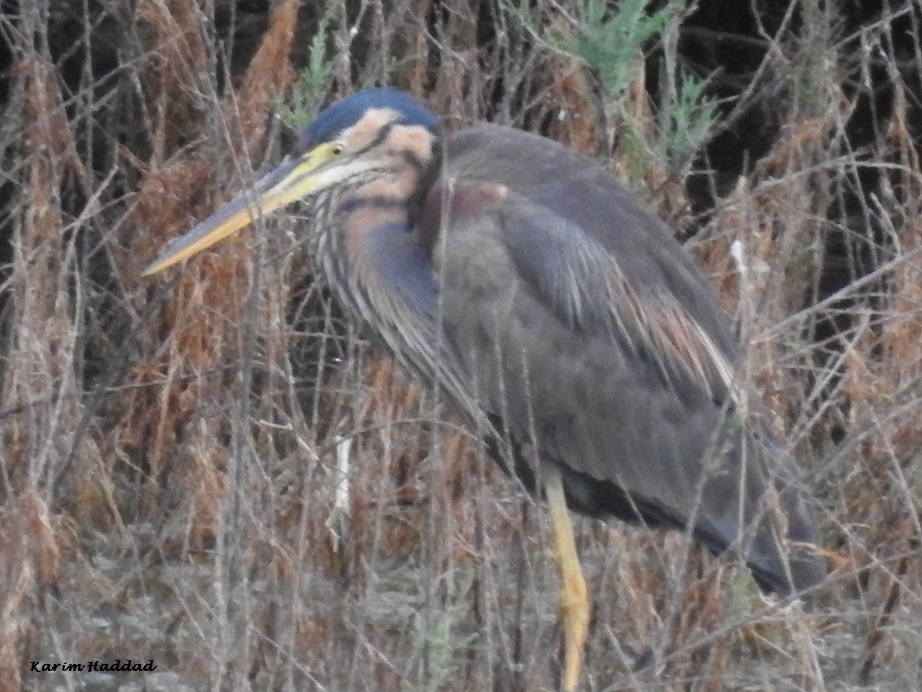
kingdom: Animalia
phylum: Chordata
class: Aves
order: Pelecaniformes
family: Ardeidae
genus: Ardea
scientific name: Ardea purpurea
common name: Purple heron
